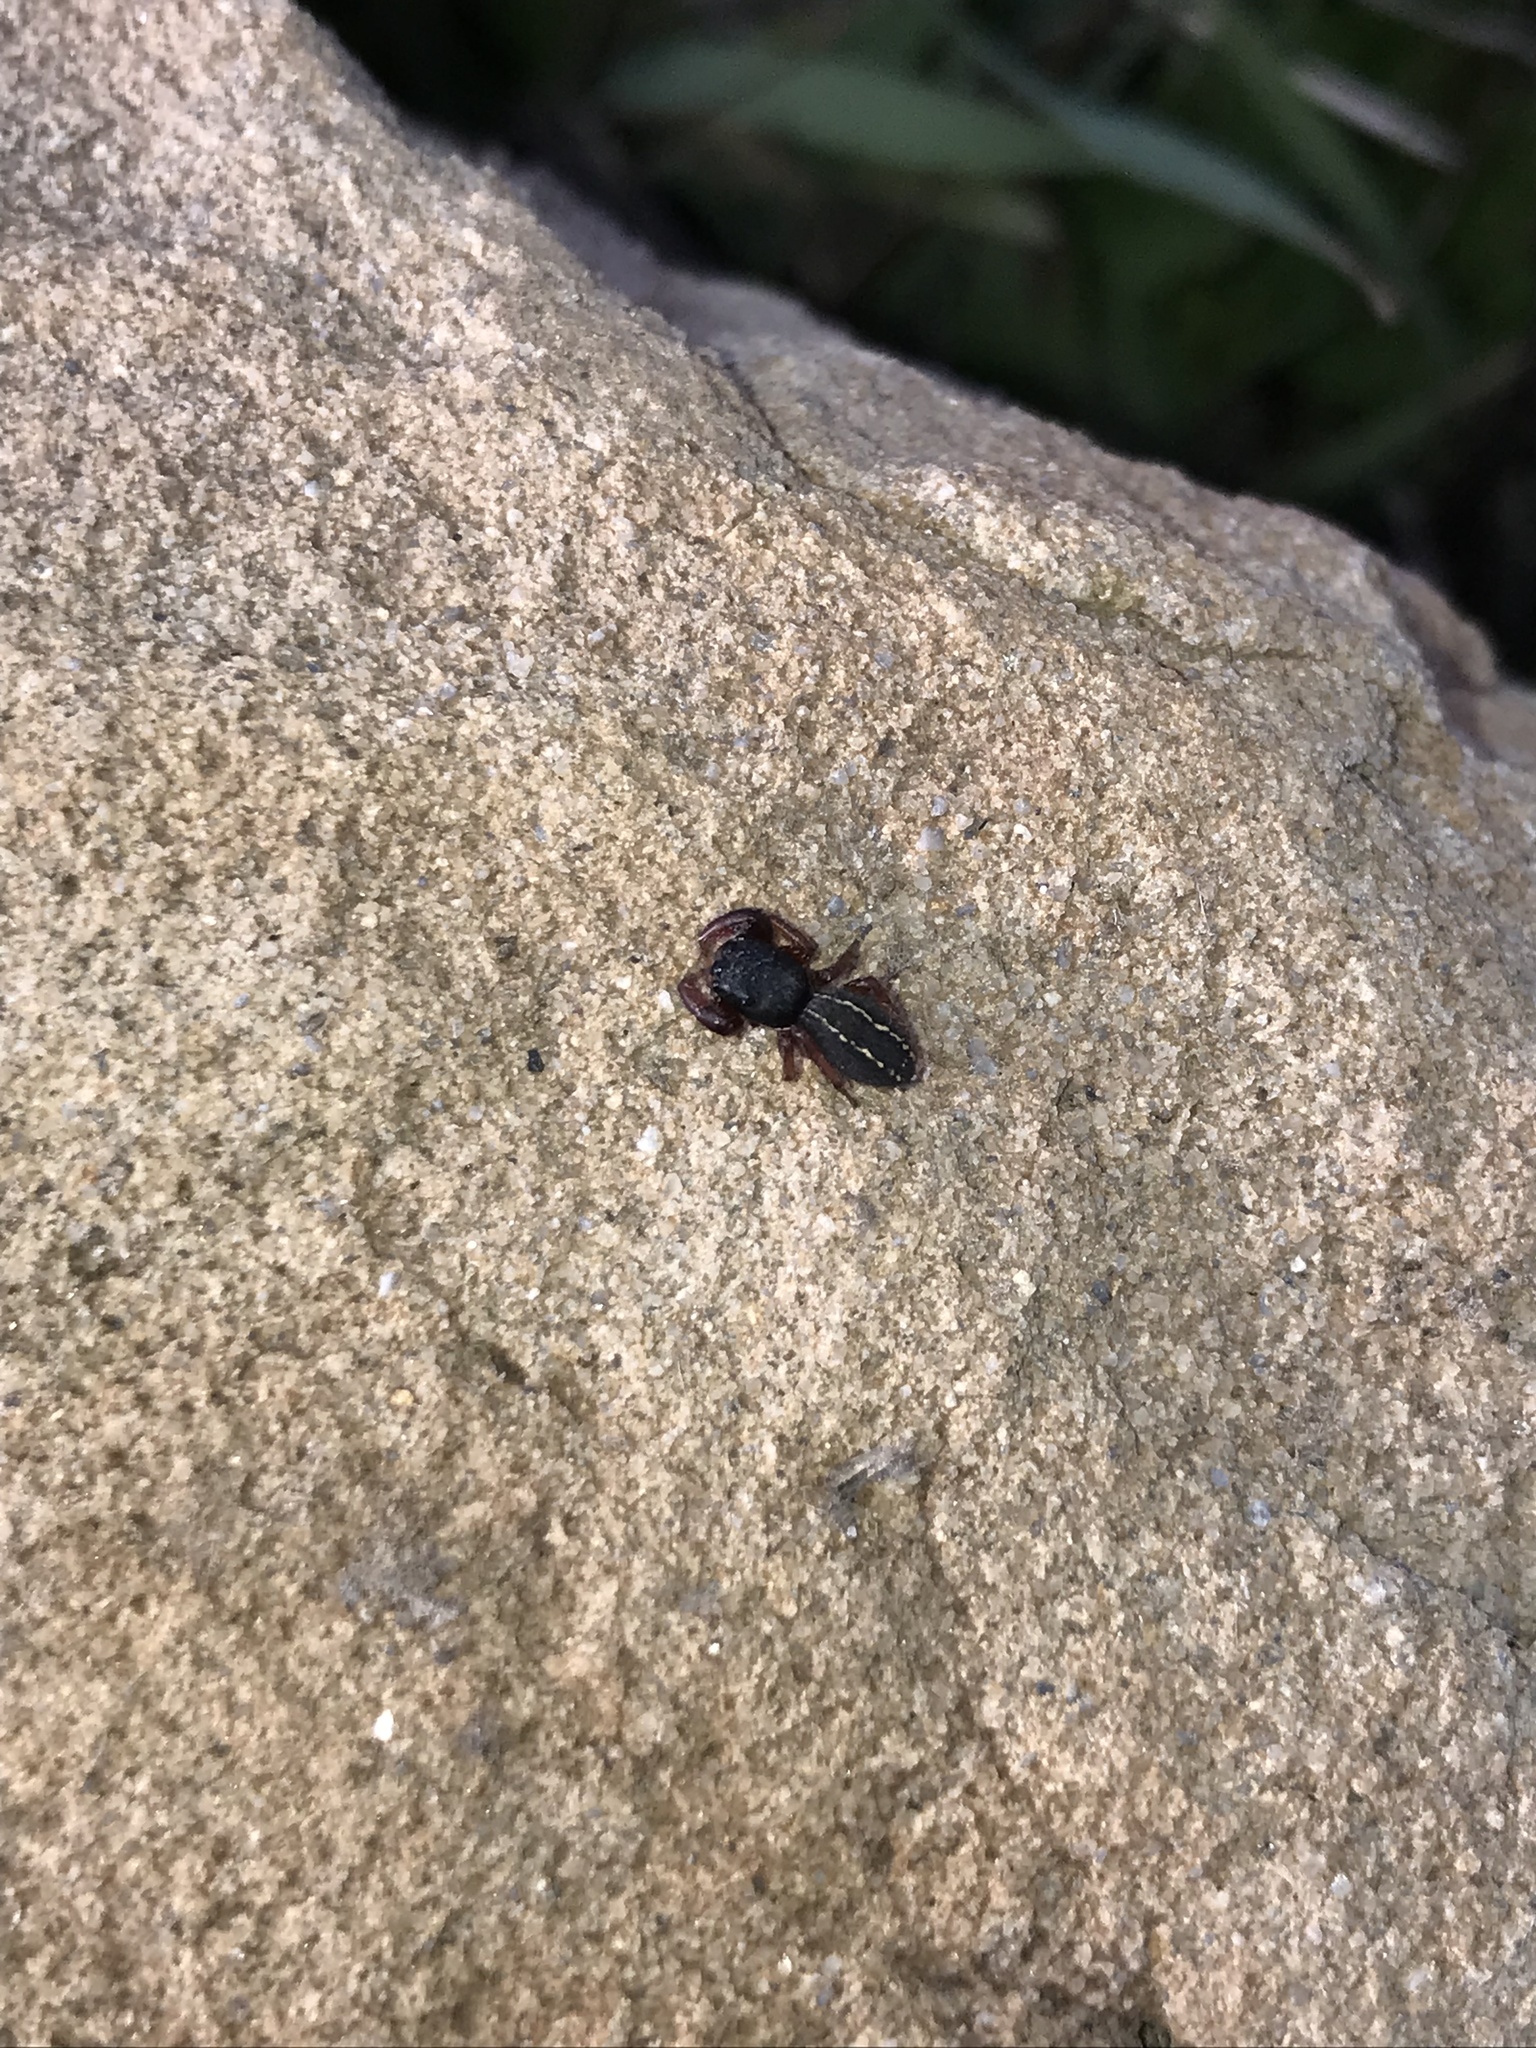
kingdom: Animalia
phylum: Arthropoda
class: Arachnida
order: Araneae
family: Salticidae
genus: Metacyrba
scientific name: Metacyrba taeniola
